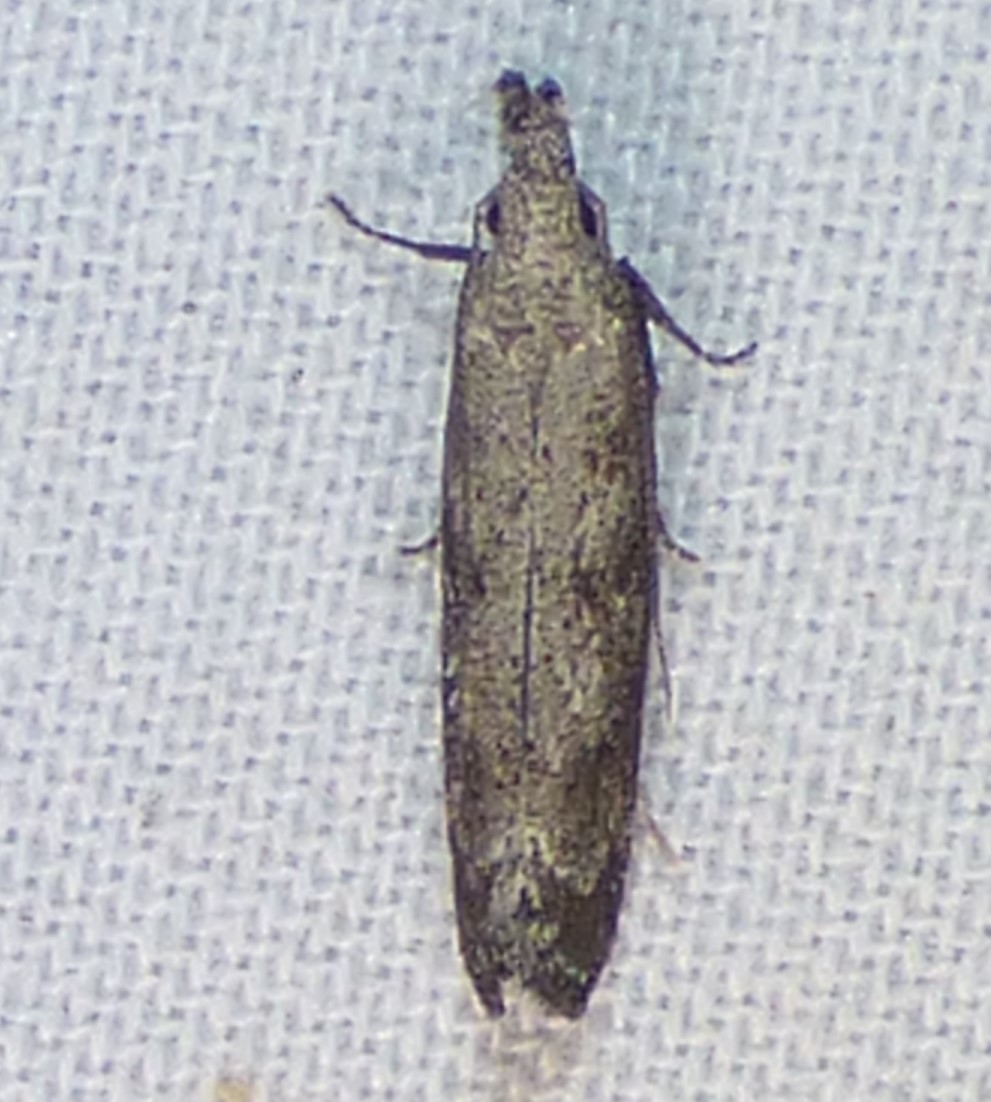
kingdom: Animalia
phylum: Arthropoda
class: Insecta
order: Lepidoptera
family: Gelechiidae
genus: Dichomeris
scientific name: Dichomeris inversella
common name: Inverse dichomeris moth
